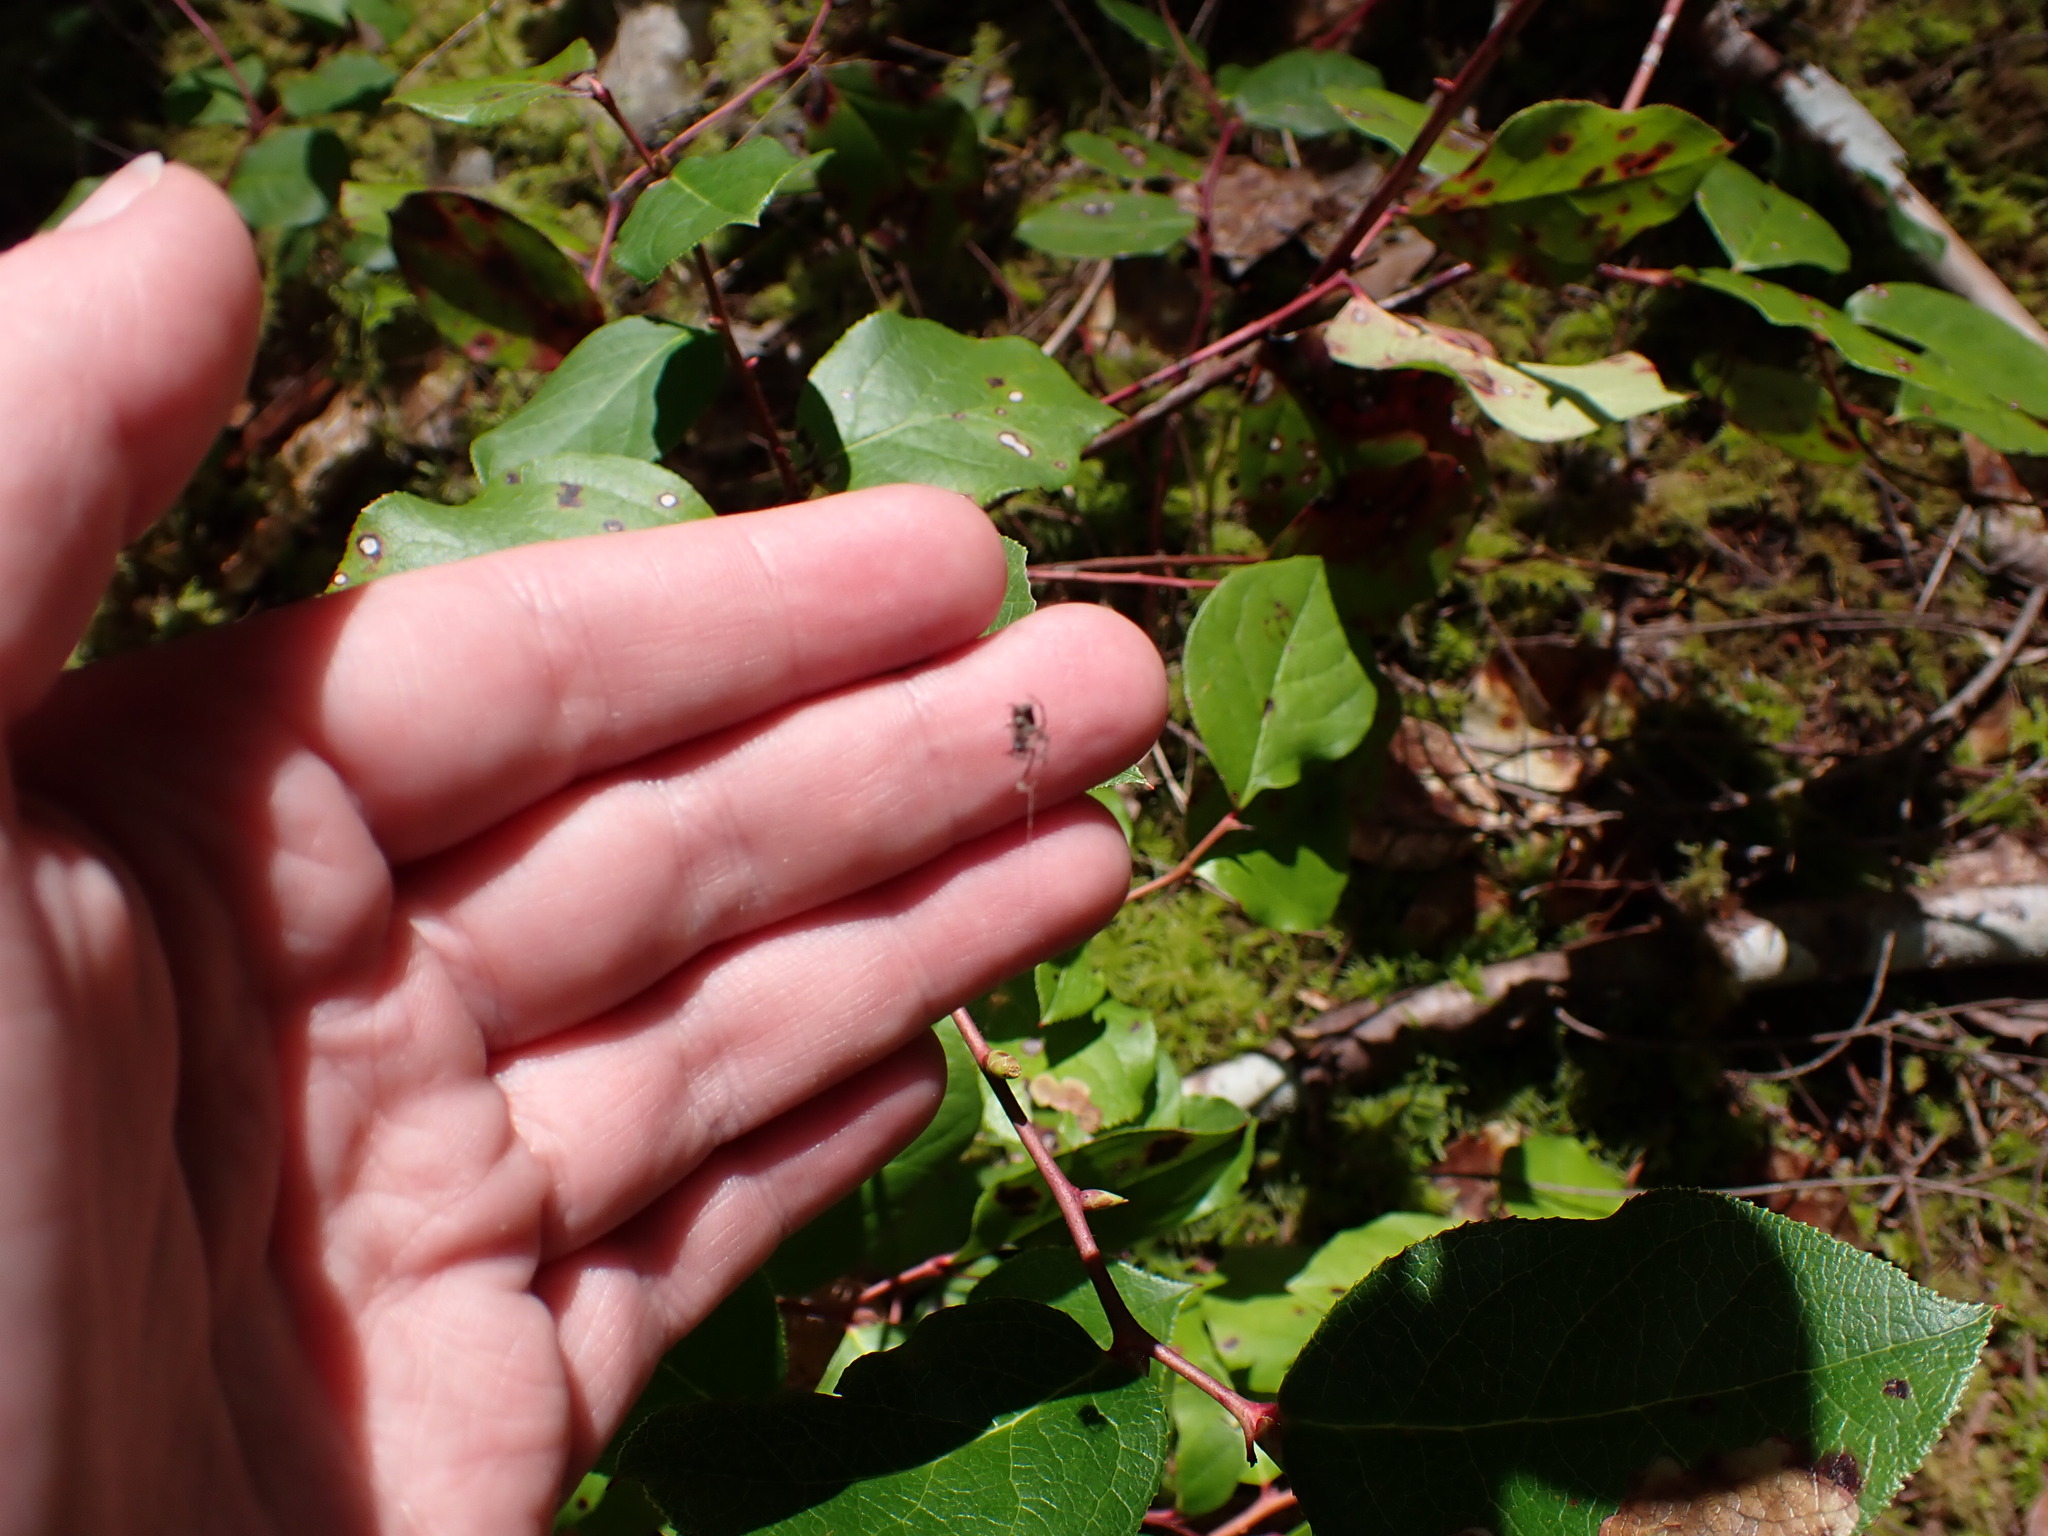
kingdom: Animalia
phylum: Arthropoda
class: Arachnida
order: Araneae
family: Araneidae
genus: Cyclosa
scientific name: Cyclosa conica
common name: Conical trashline orbweaver
